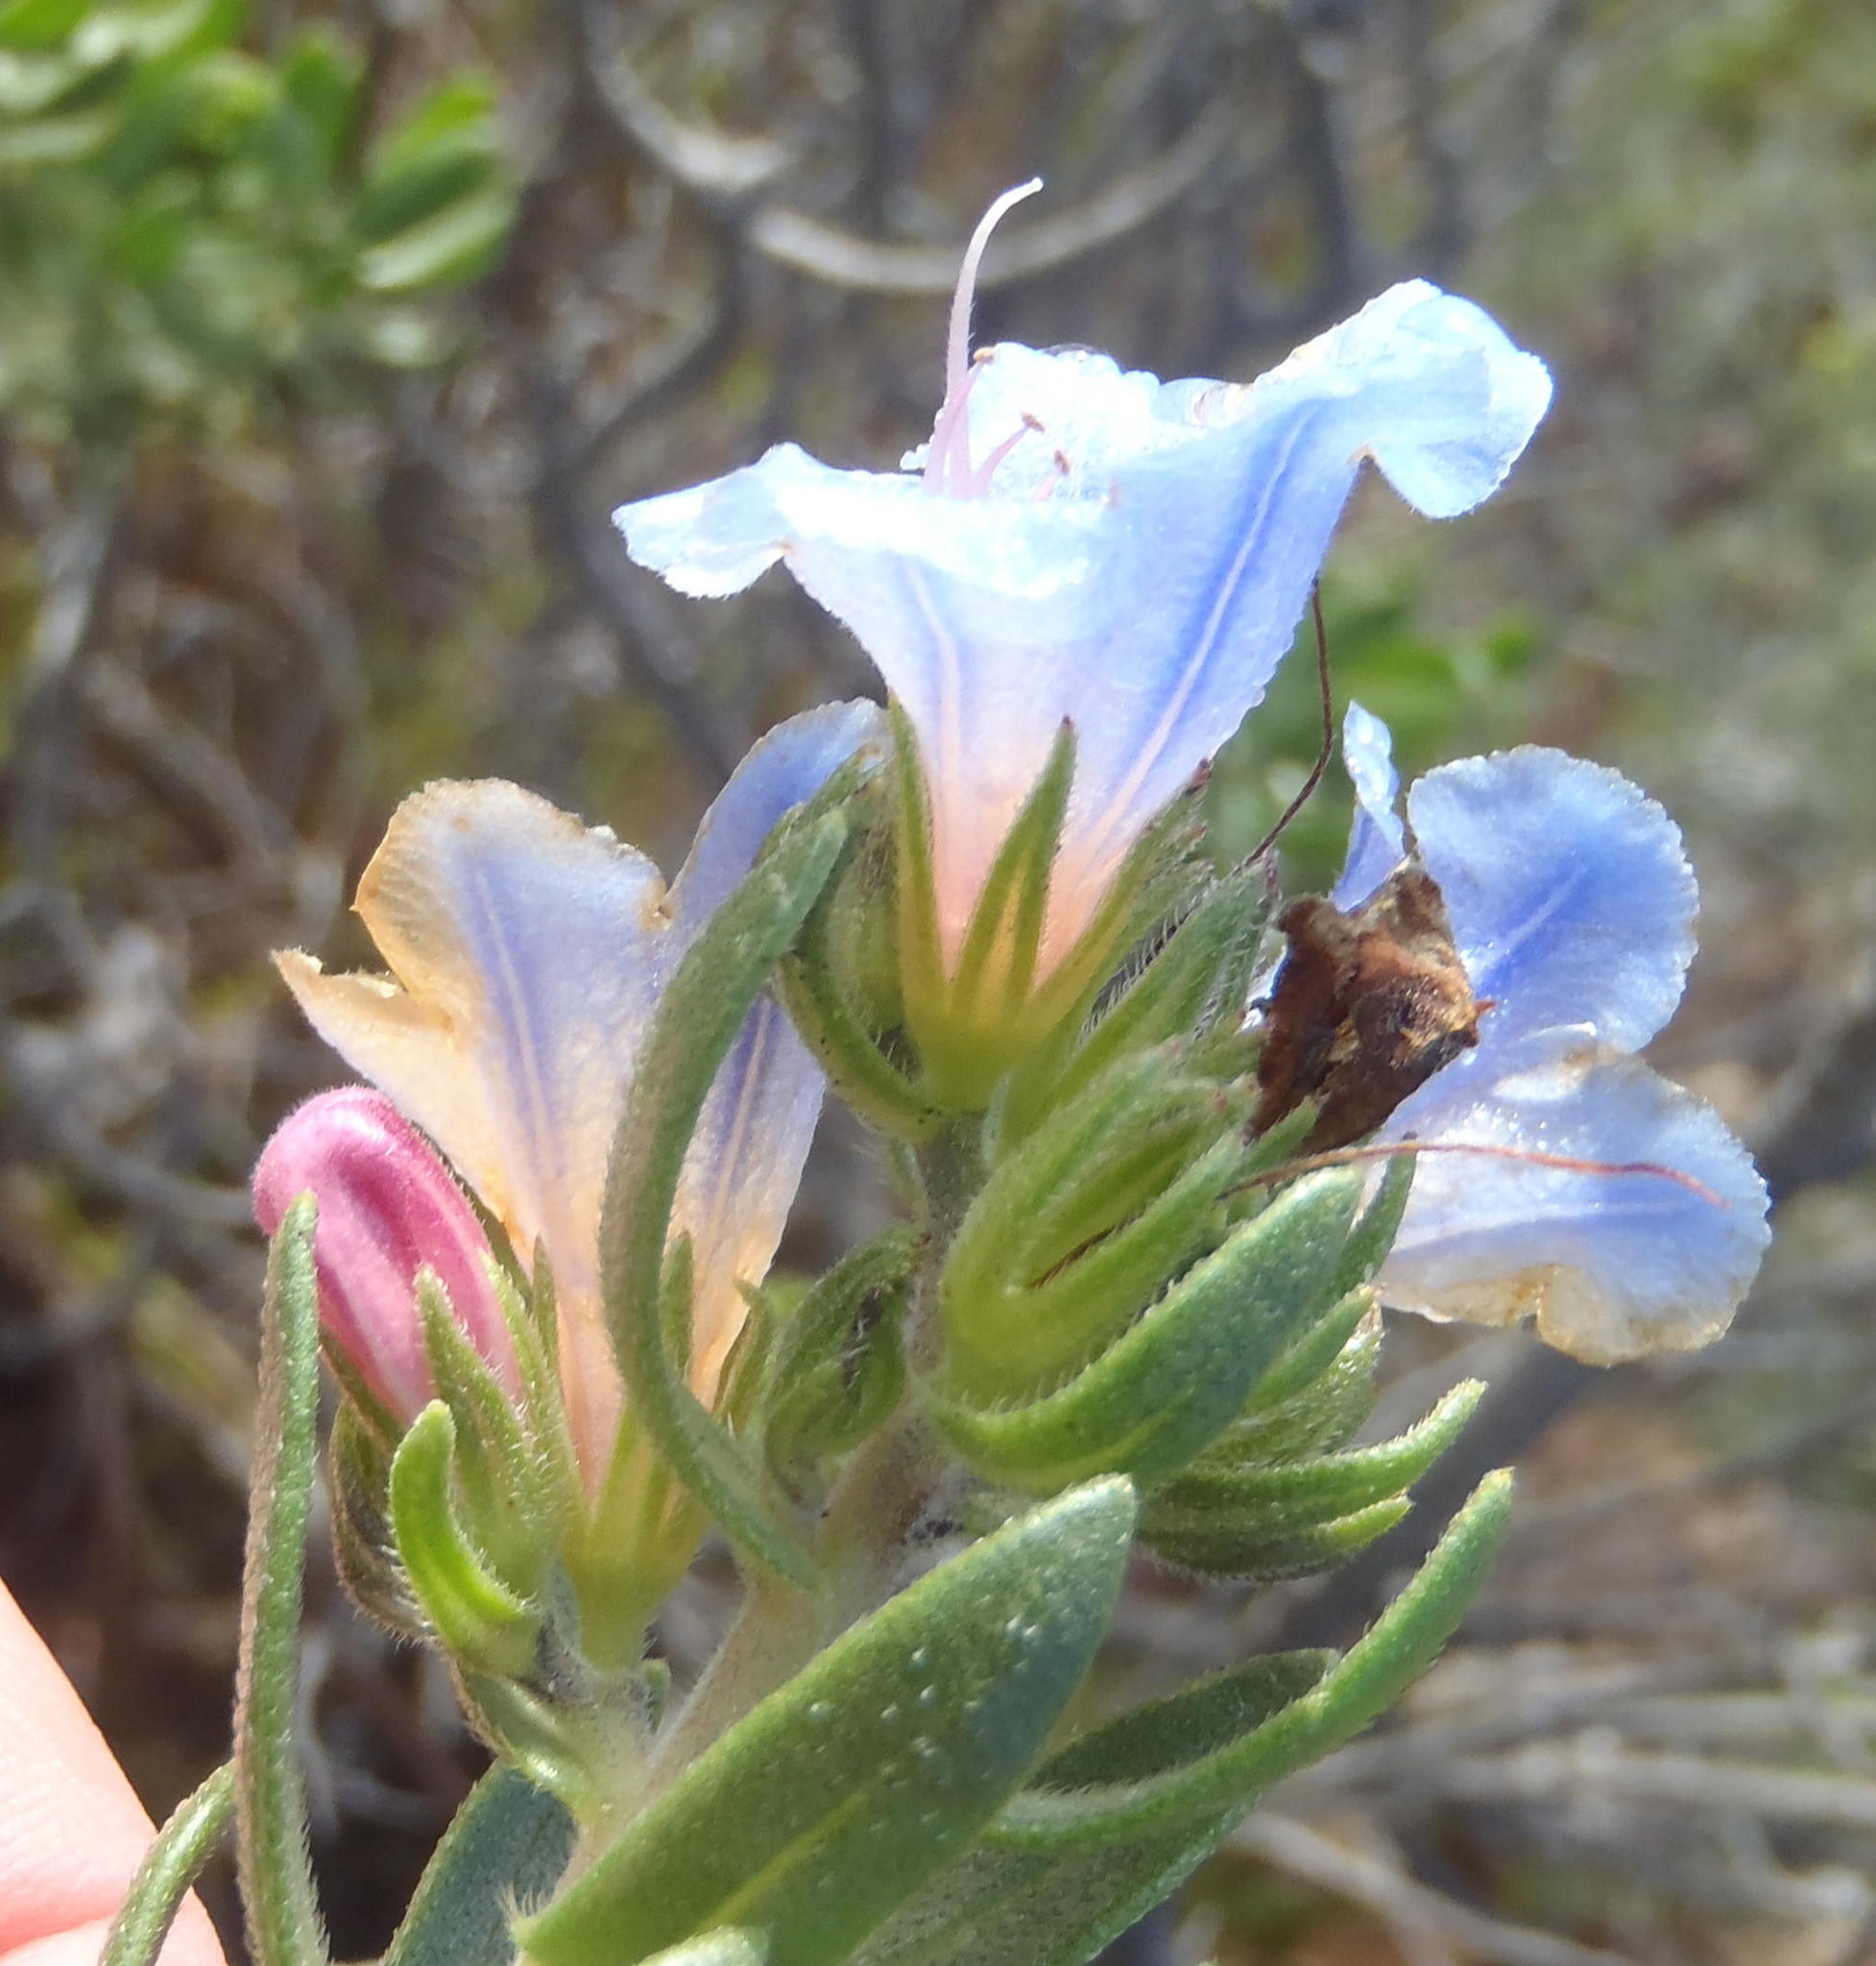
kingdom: Plantae
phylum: Tracheophyta
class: Magnoliopsida
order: Boraginales
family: Boraginaceae
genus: Lobostemon
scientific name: Lobostemon fruticosus
